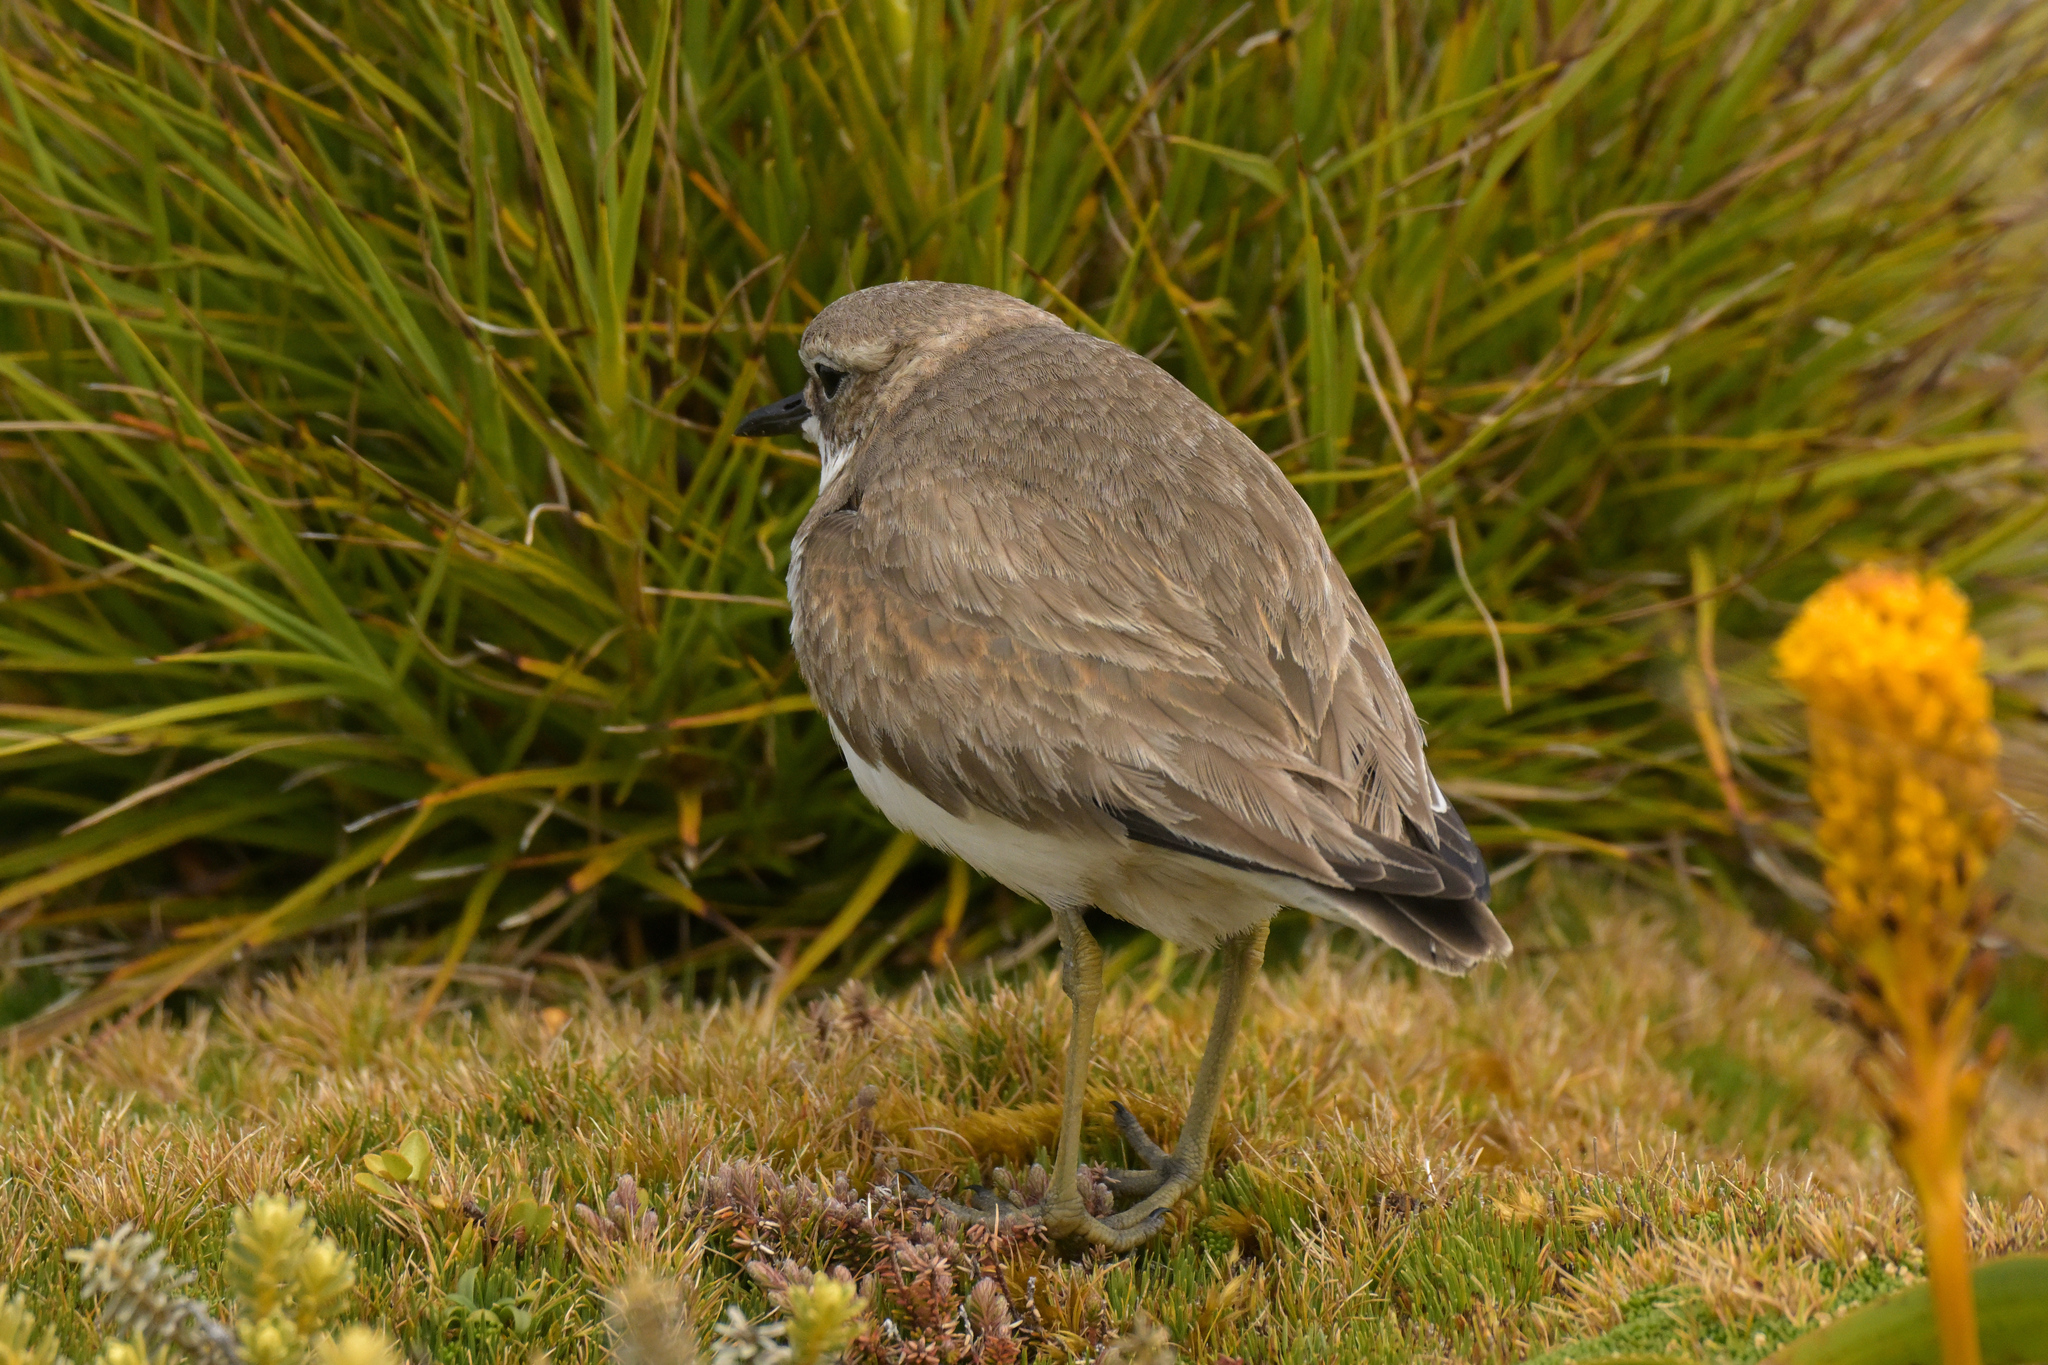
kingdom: Animalia
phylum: Chordata
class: Aves
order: Charadriiformes
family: Charadriidae
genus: Anarhynchus
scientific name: Anarhynchus
